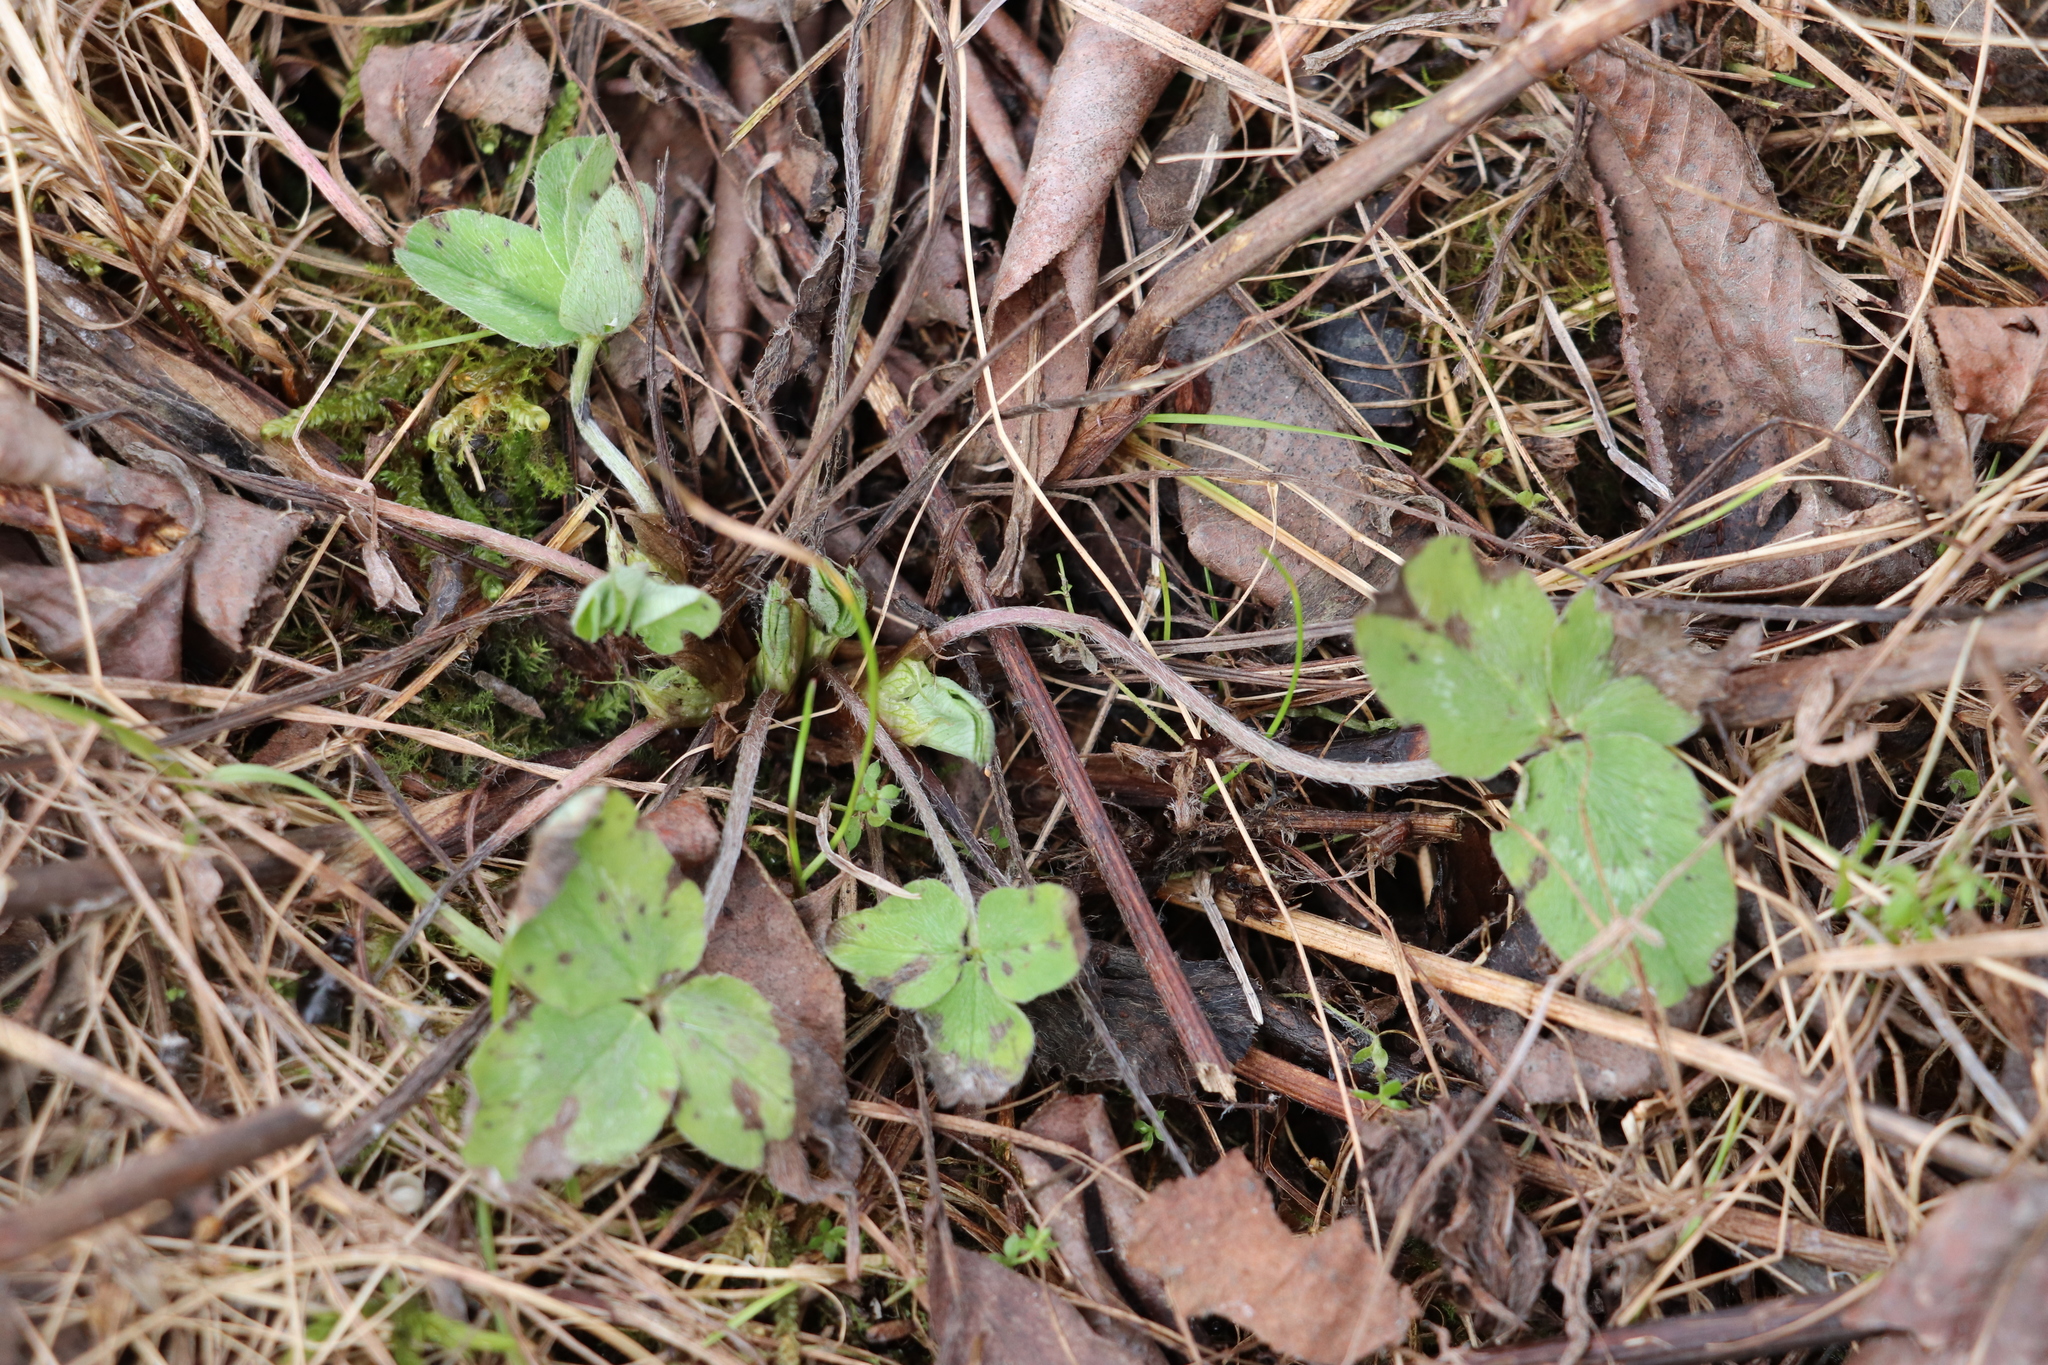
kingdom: Plantae
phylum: Tracheophyta
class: Magnoliopsida
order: Fabales
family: Fabaceae
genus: Trifolium
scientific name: Trifolium pratense
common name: Red clover
